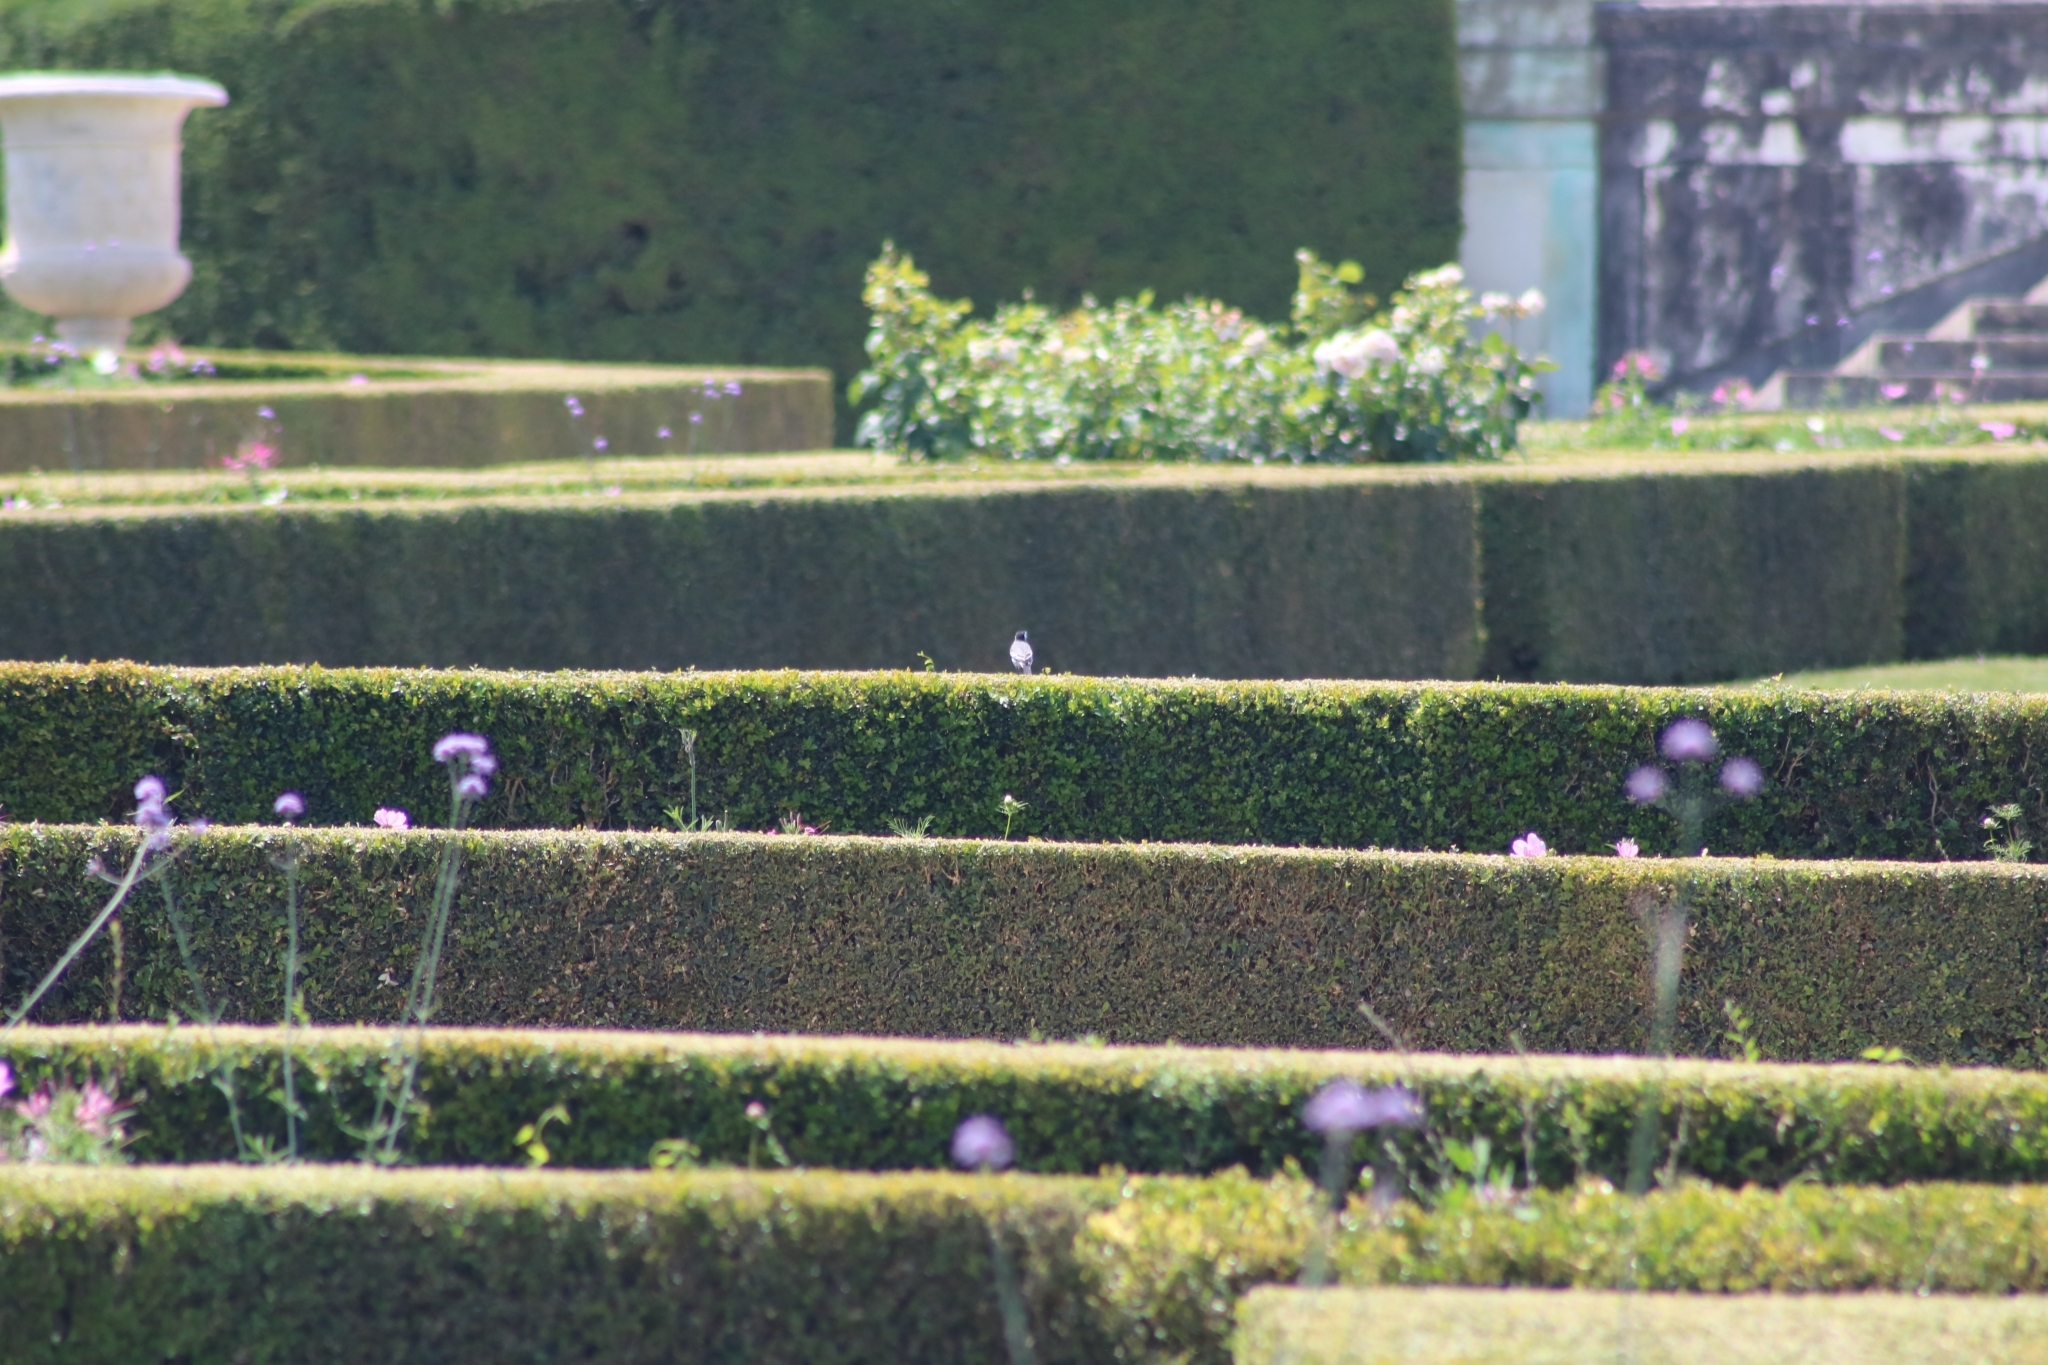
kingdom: Animalia
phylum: Chordata
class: Aves
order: Passeriformes
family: Motacillidae
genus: Motacilla
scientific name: Motacilla alba
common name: White wagtail
